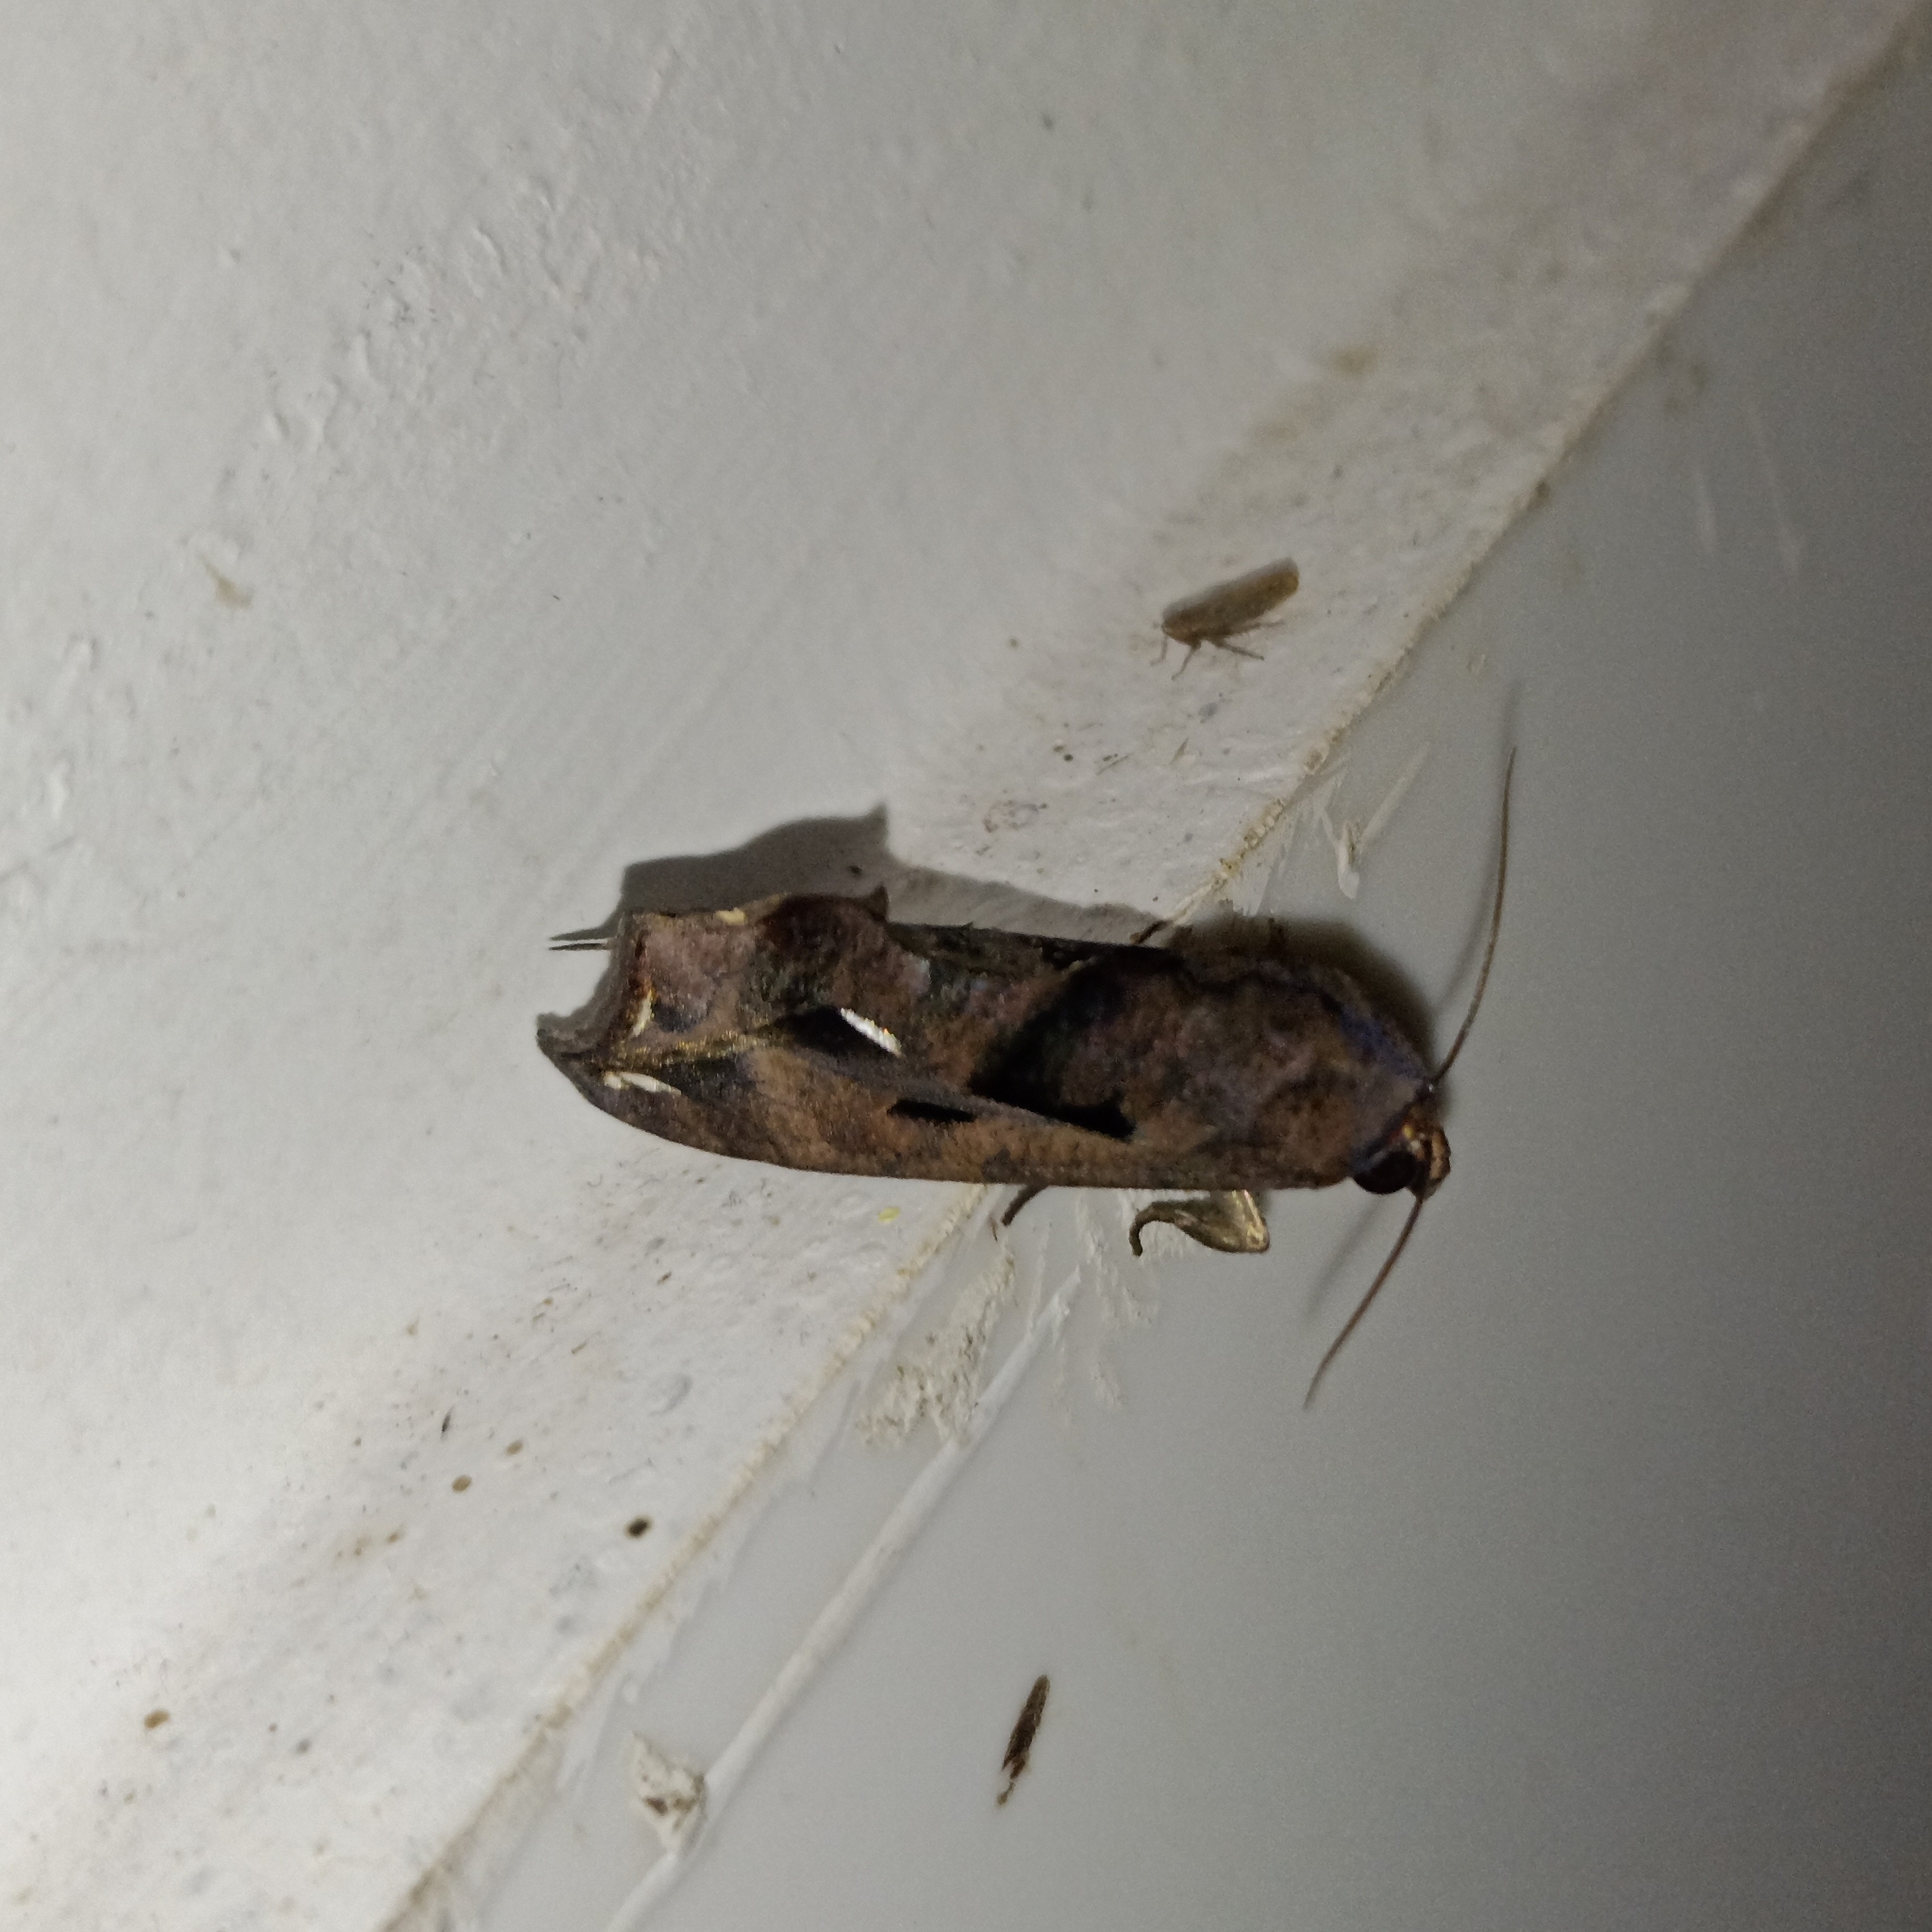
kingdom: Animalia
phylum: Arthropoda
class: Insecta
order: Lepidoptera
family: Erebidae
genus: Oraesia
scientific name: Oraesia emarginata
